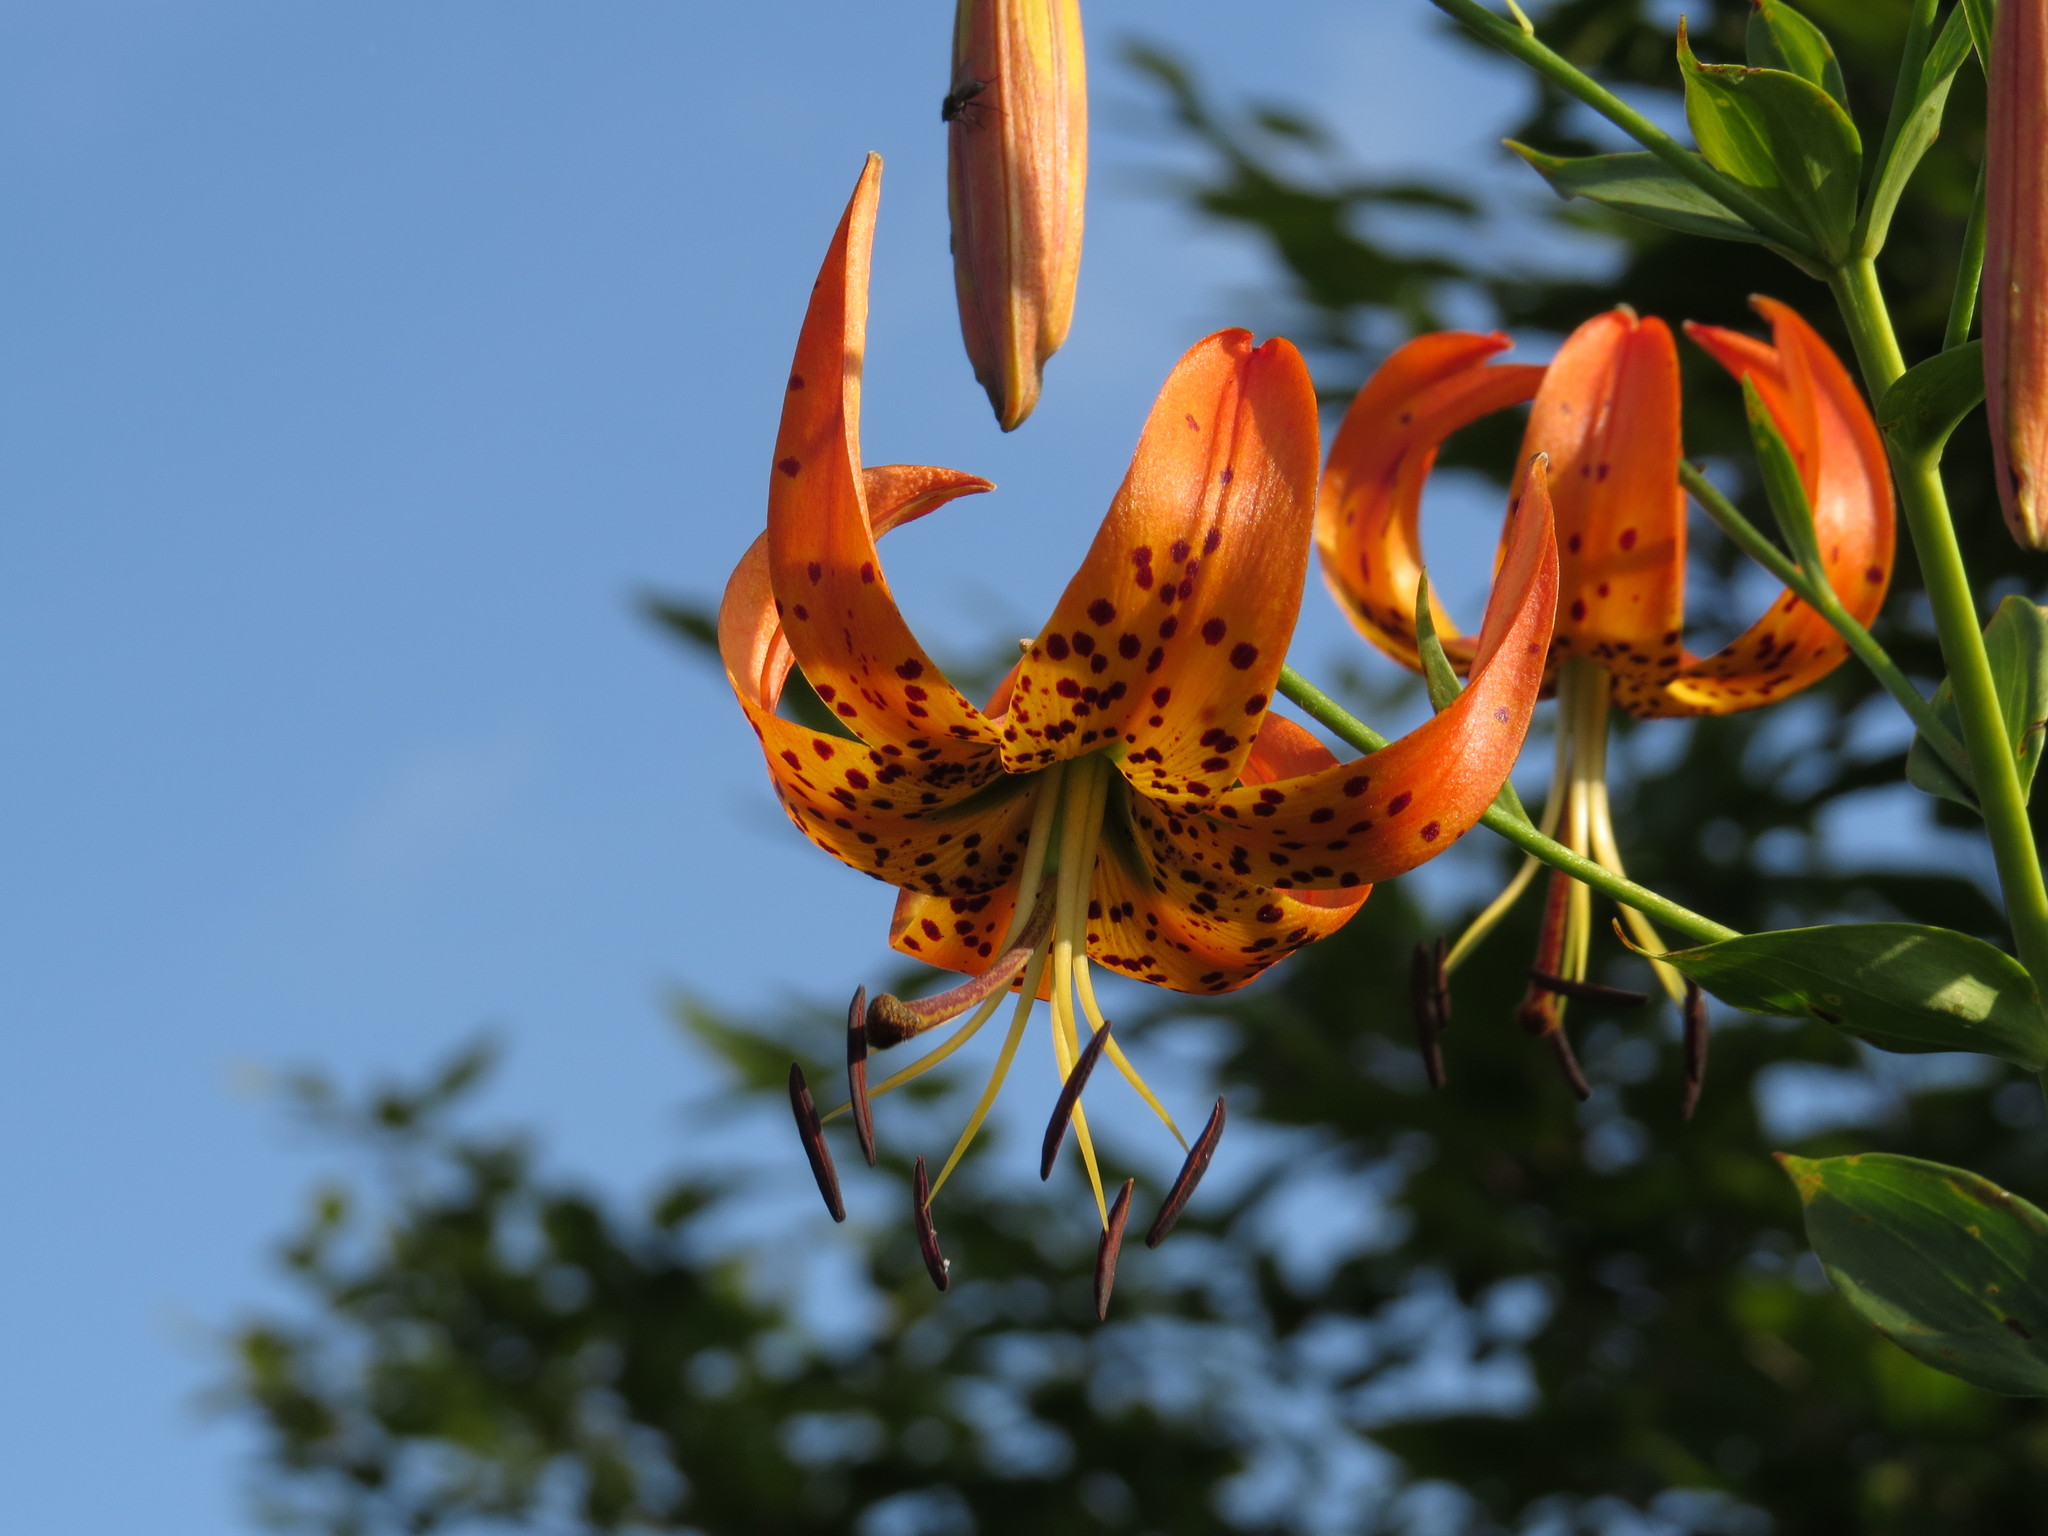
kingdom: Plantae
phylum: Tracheophyta
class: Liliopsida
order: Liliales
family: Liliaceae
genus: Lilium
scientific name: Lilium superbum
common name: American turk's-cap lily
